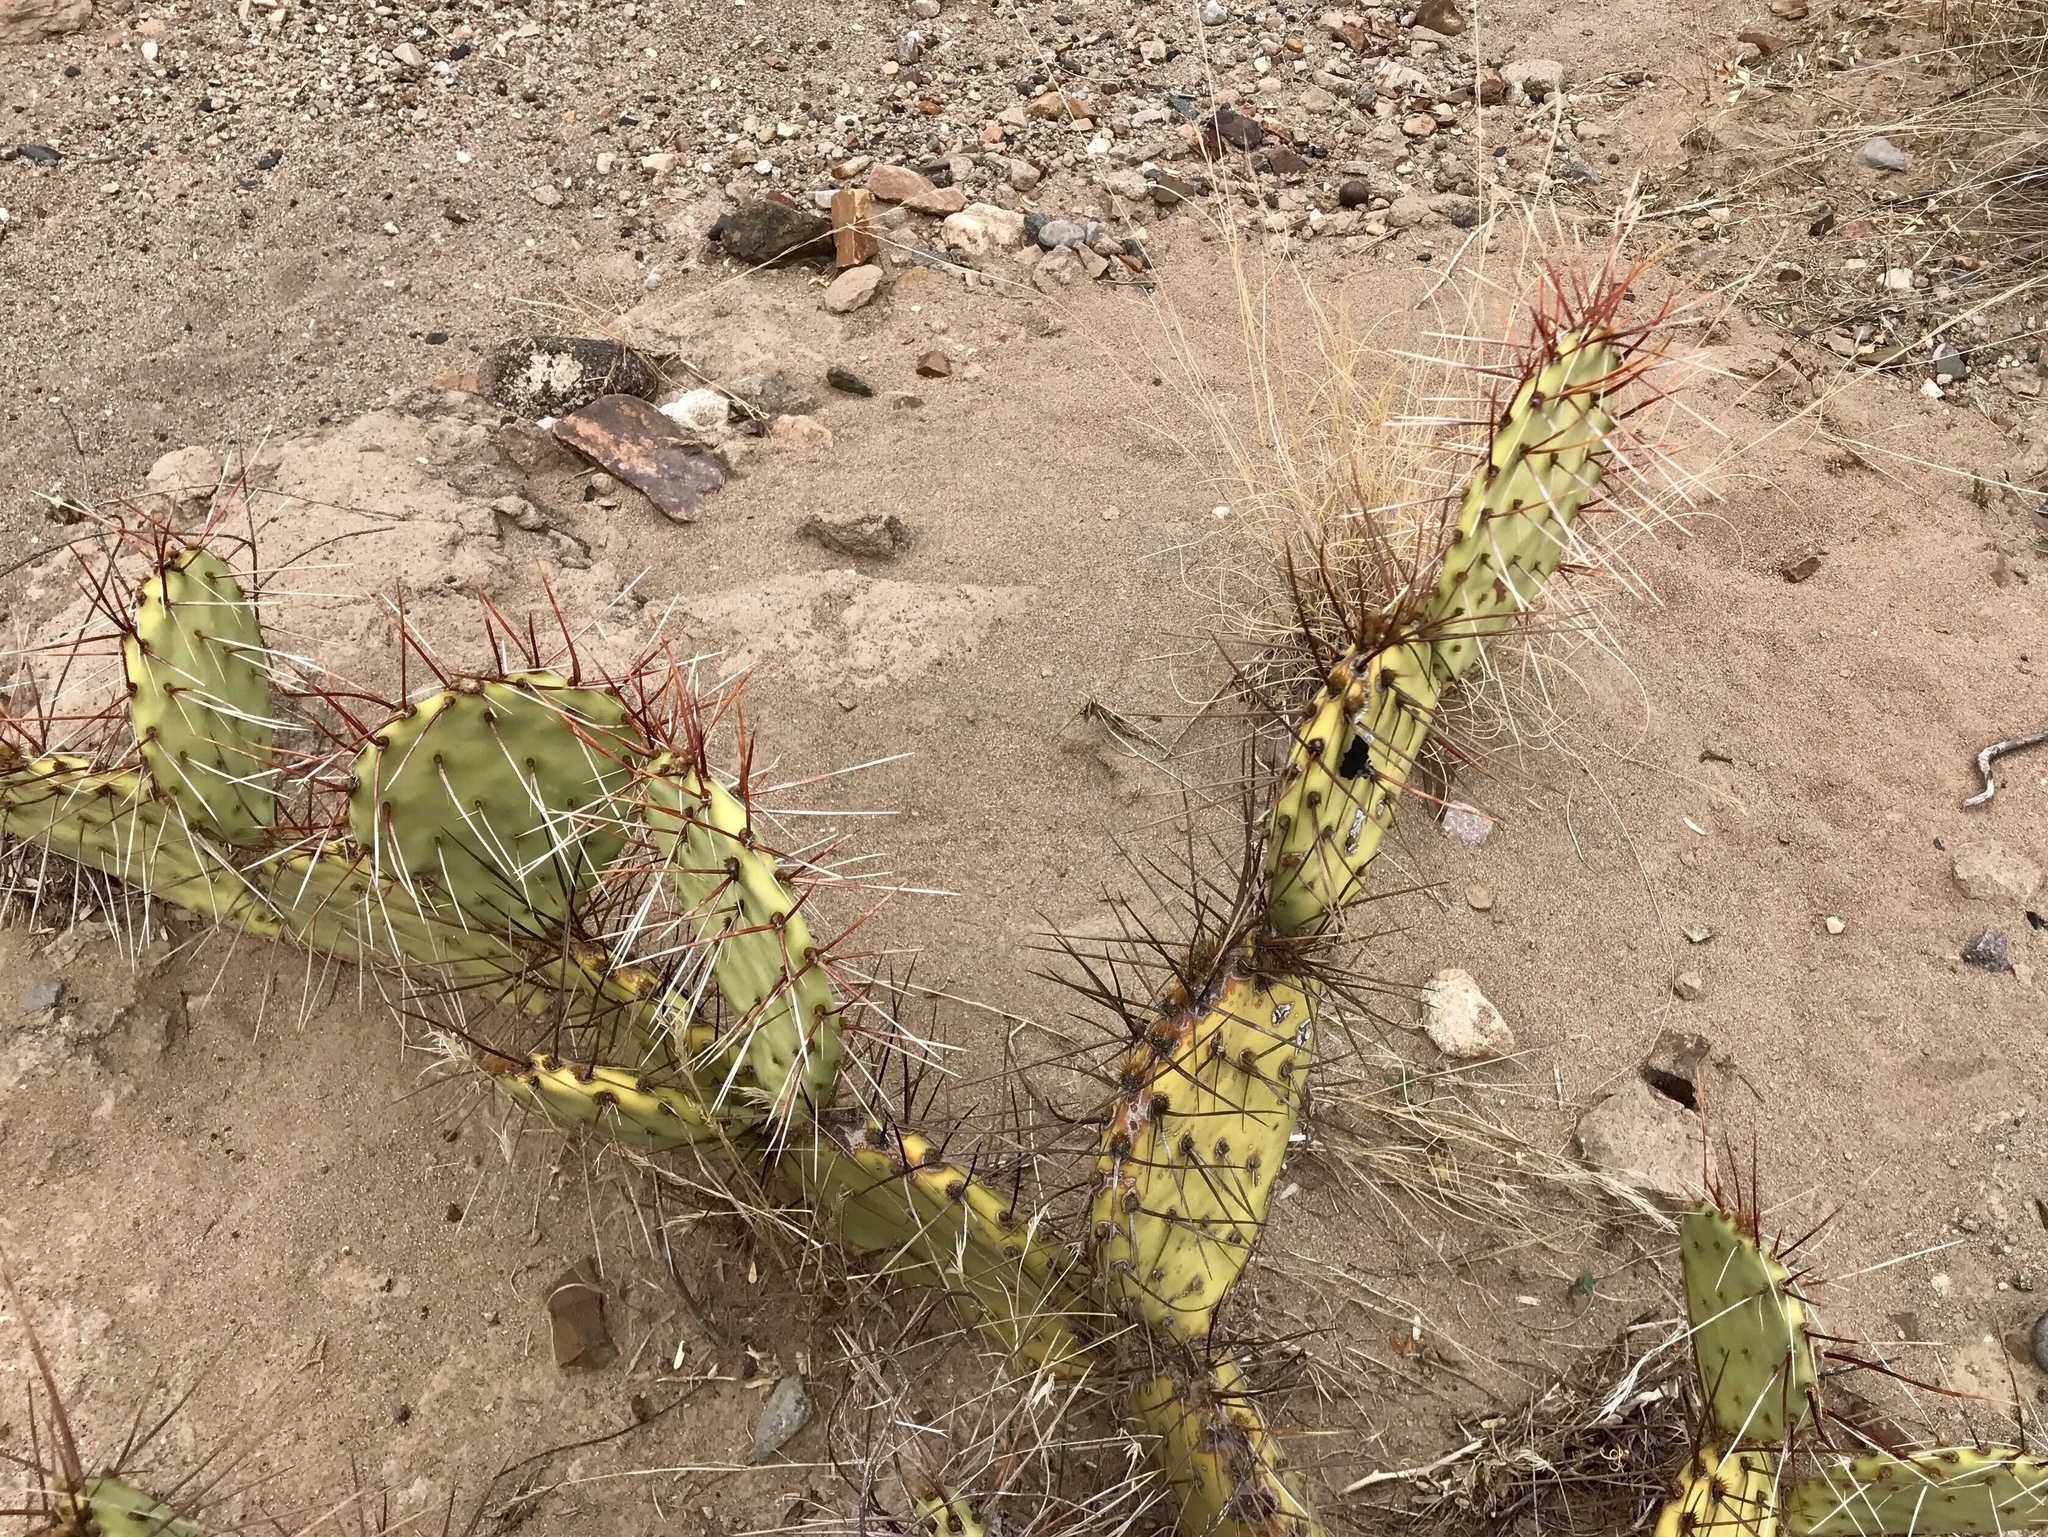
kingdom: Plantae
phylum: Tracheophyta
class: Magnoliopsida
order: Caryophyllales
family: Cactaceae
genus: Opuntia
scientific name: Opuntia phaeacantha
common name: New mexico prickly-pear
